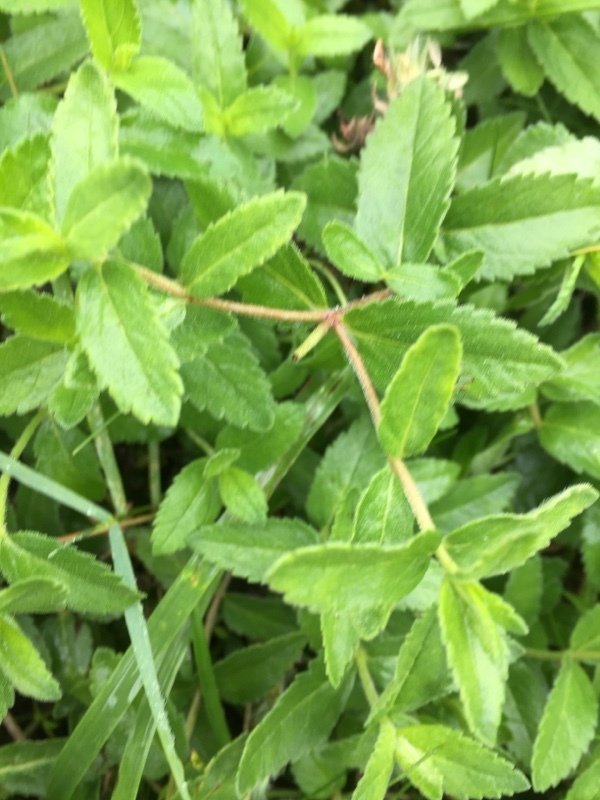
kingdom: Plantae
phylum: Tracheophyta
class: Magnoliopsida
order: Lamiales
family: Plantaginaceae
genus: Veronica
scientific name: Veronica teucrium
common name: Large speedwell
